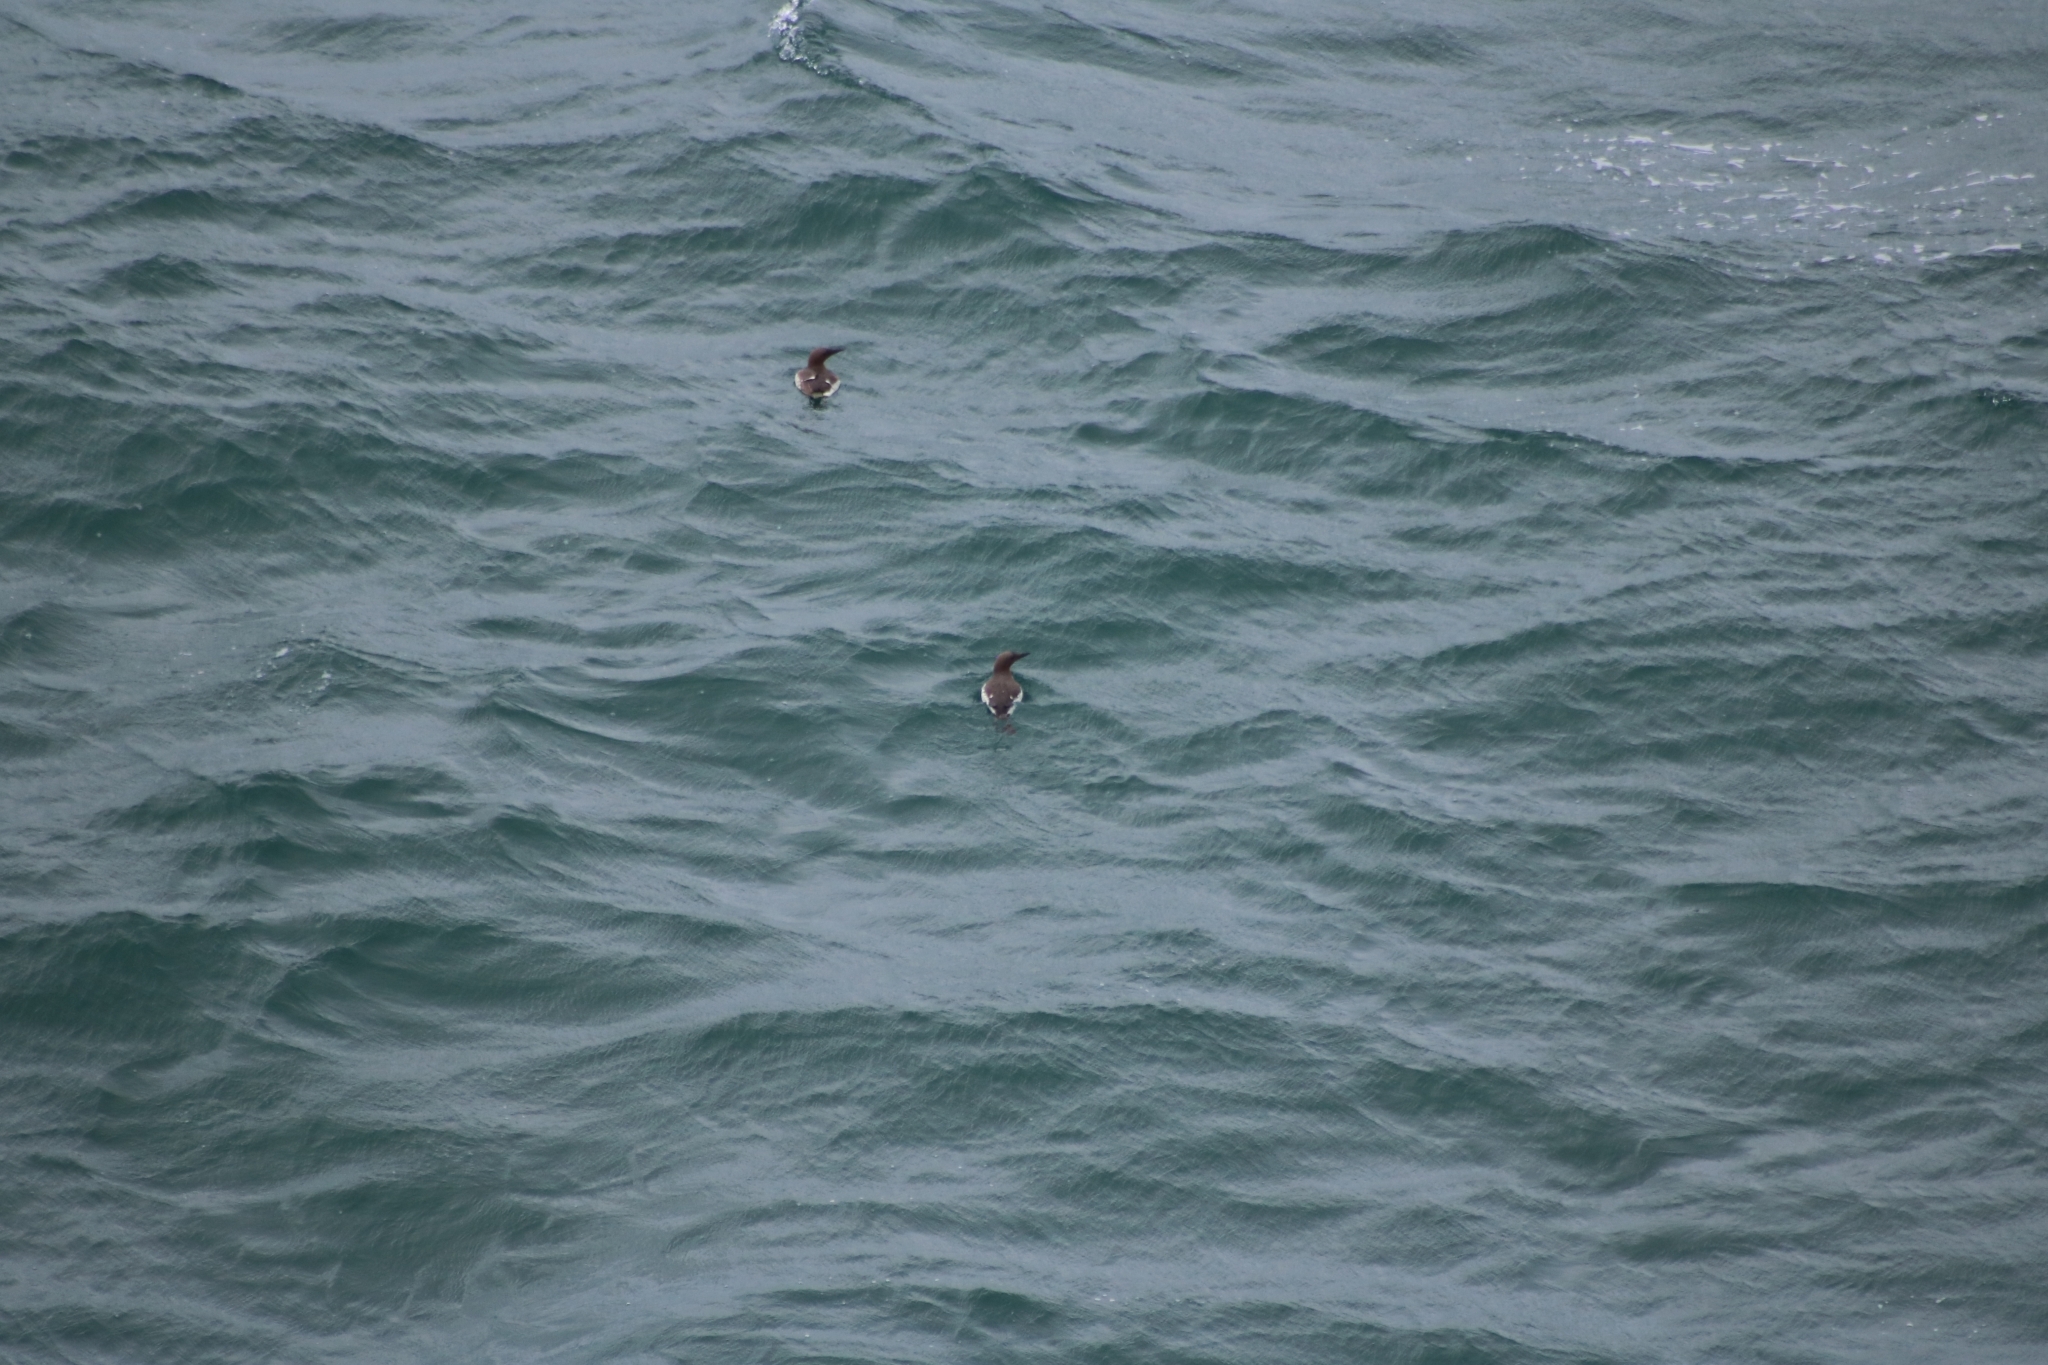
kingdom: Animalia
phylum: Chordata
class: Aves
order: Charadriiformes
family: Alcidae
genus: Uria
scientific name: Uria aalge
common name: Common murre
